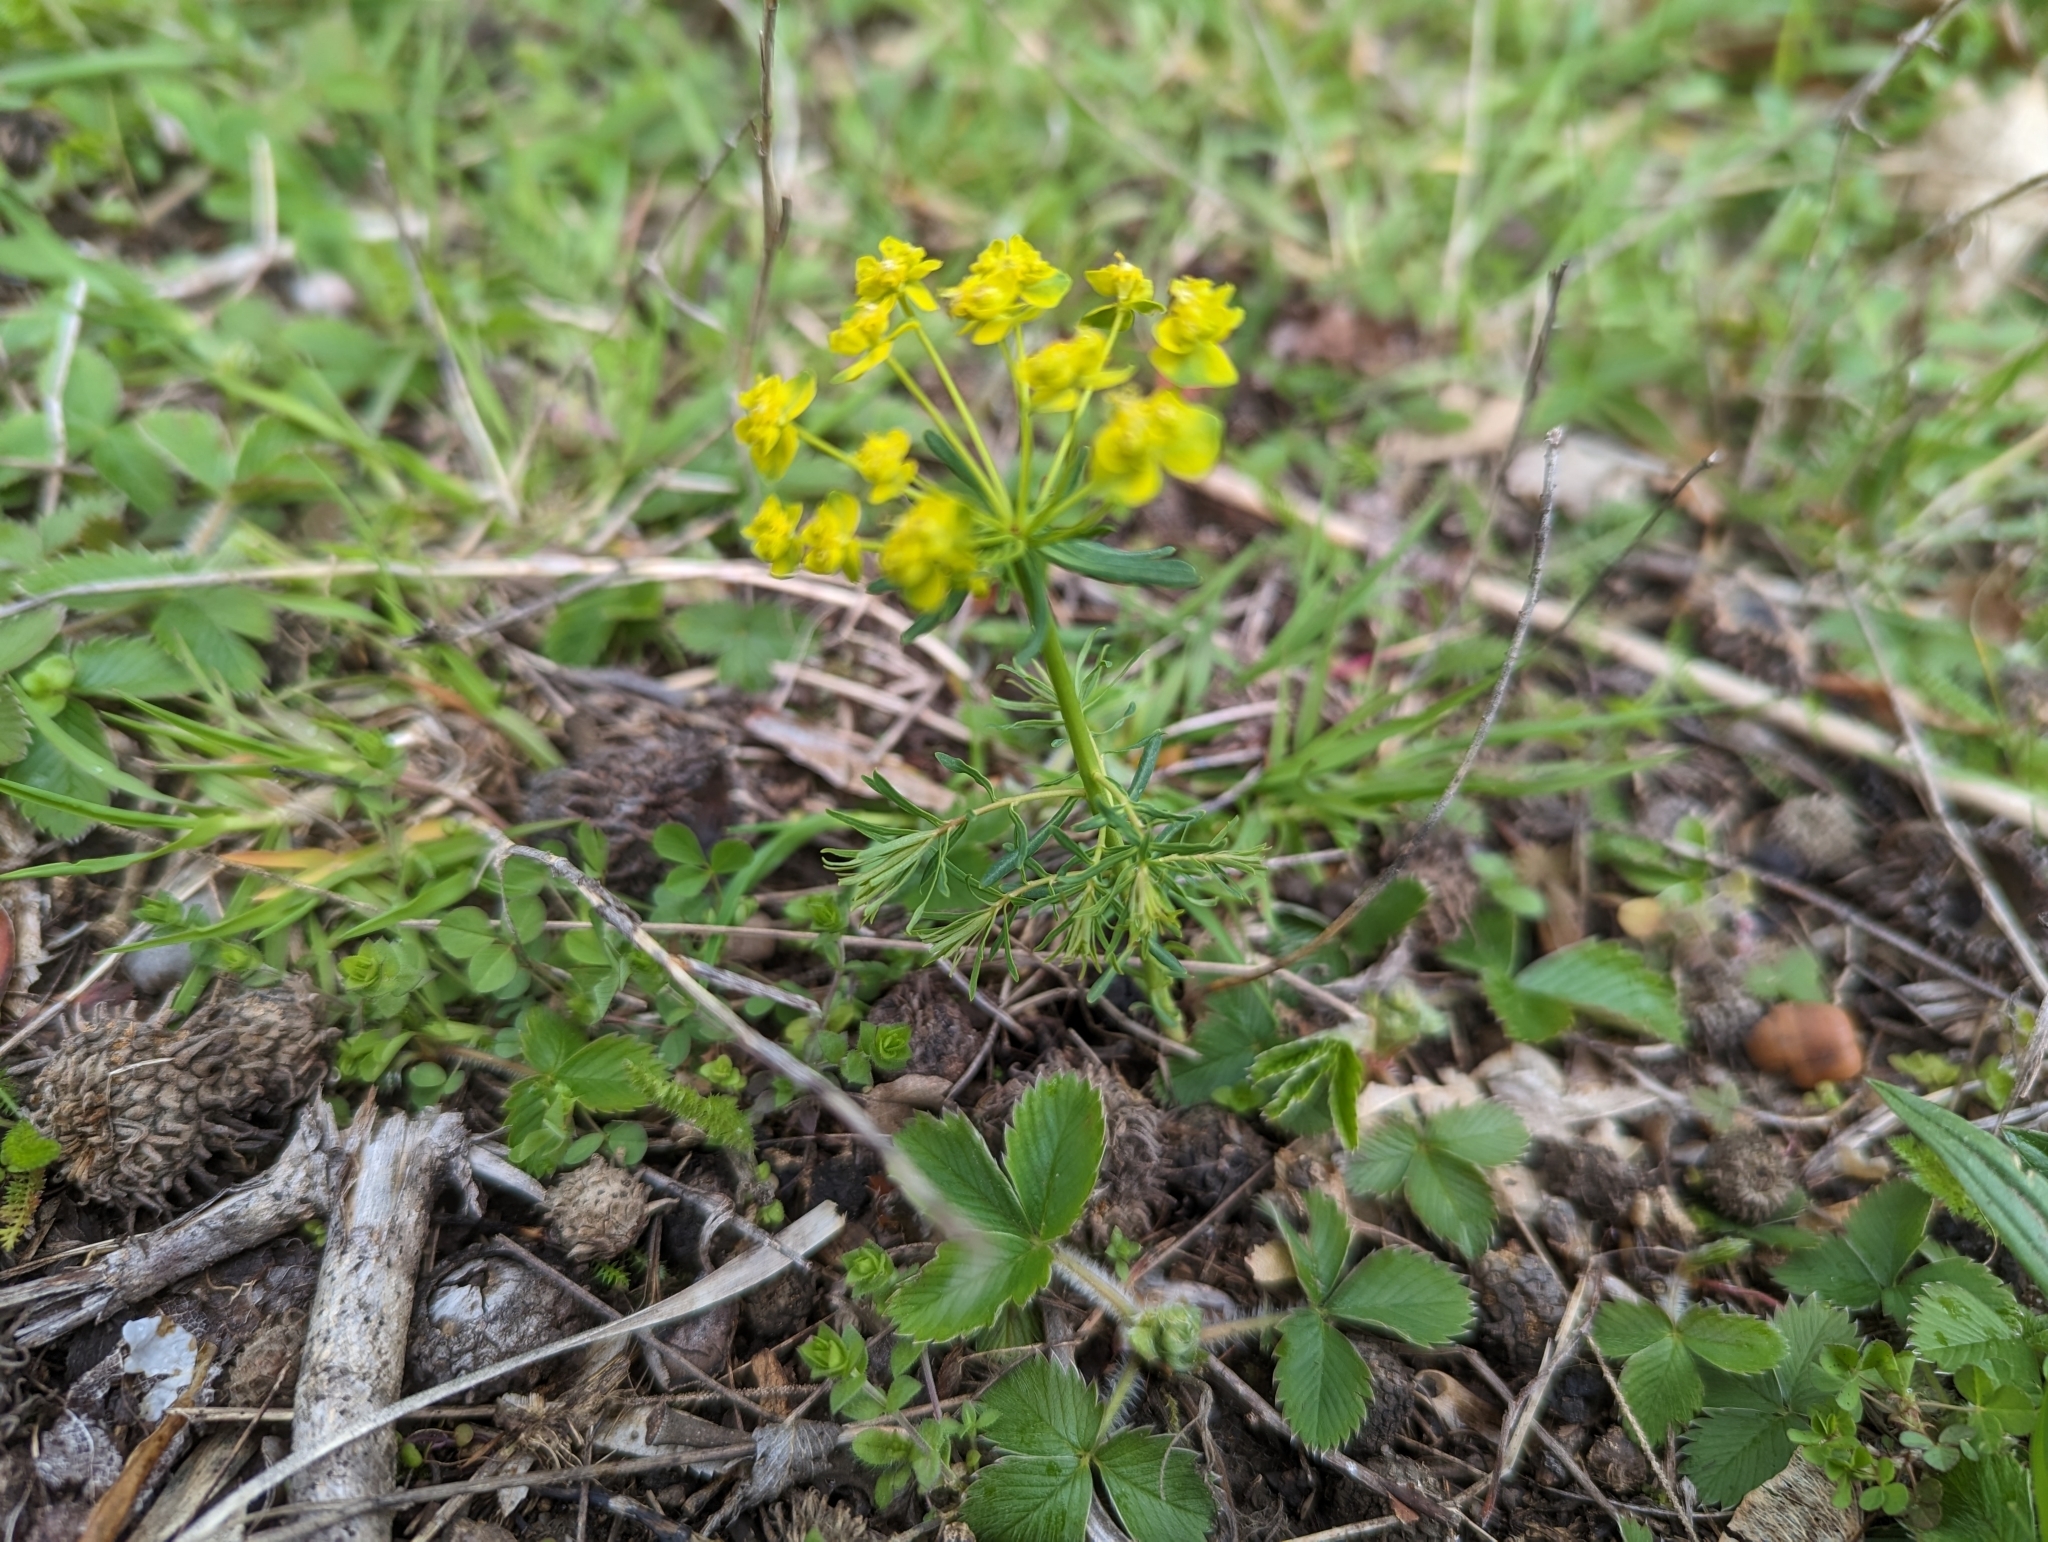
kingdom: Plantae
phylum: Tracheophyta
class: Magnoliopsida
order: Malpighiales
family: Euphorbiaceae
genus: Euphorbia
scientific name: Euphorbia cyparissias
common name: Cypress spurge
